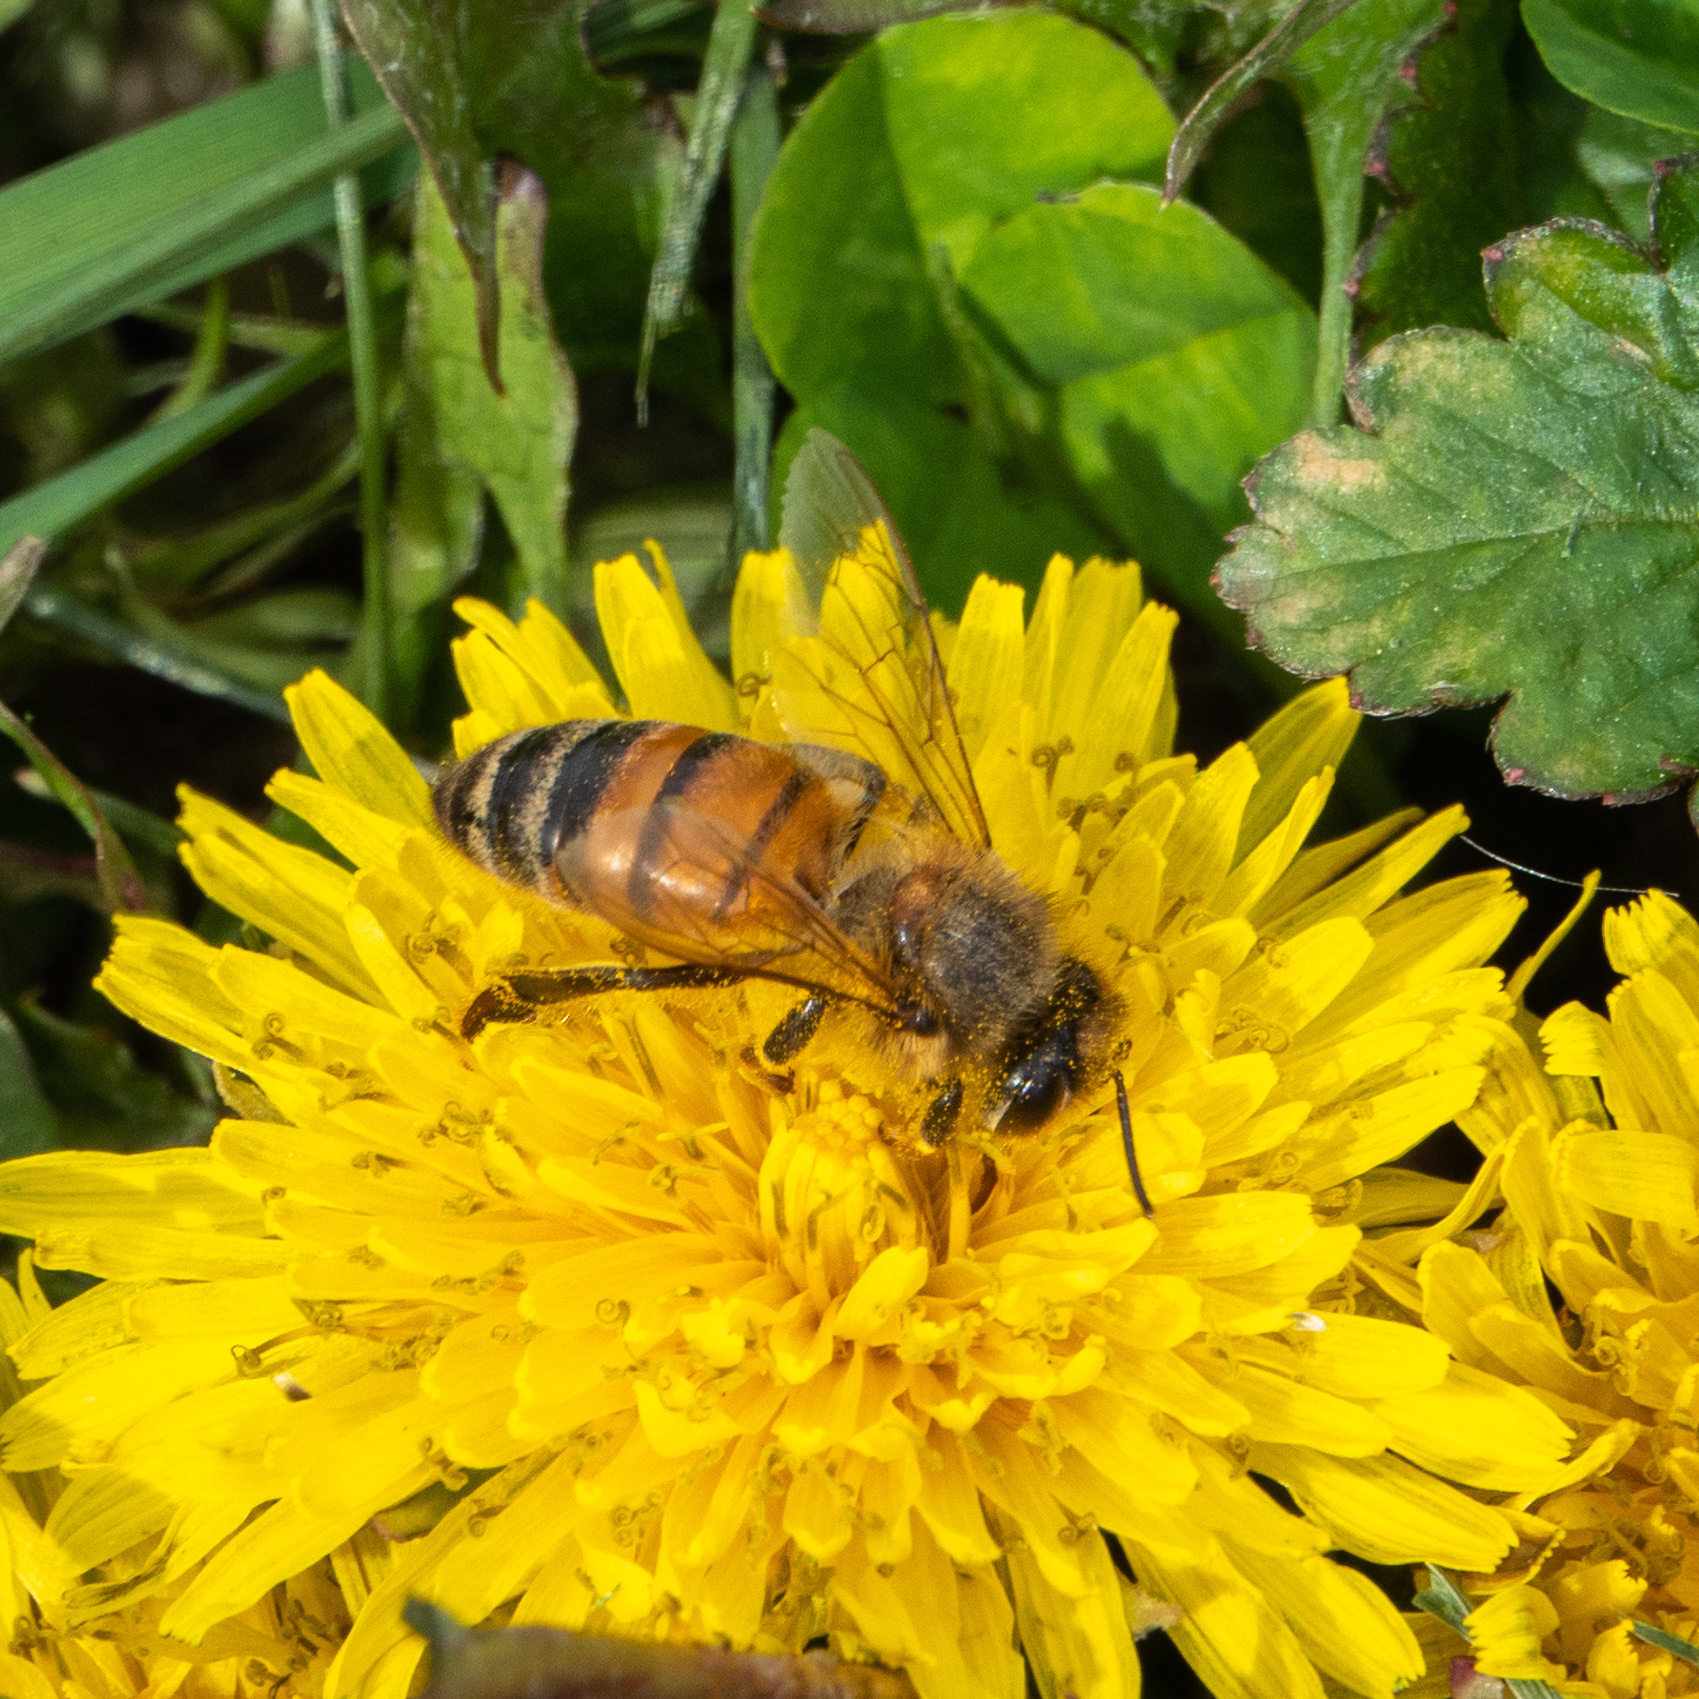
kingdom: Animalia
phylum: Arthropoda
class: Insecta
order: Hymenoptera
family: Apidae
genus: Apis
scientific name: Apis mellifera
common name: Honey bee
